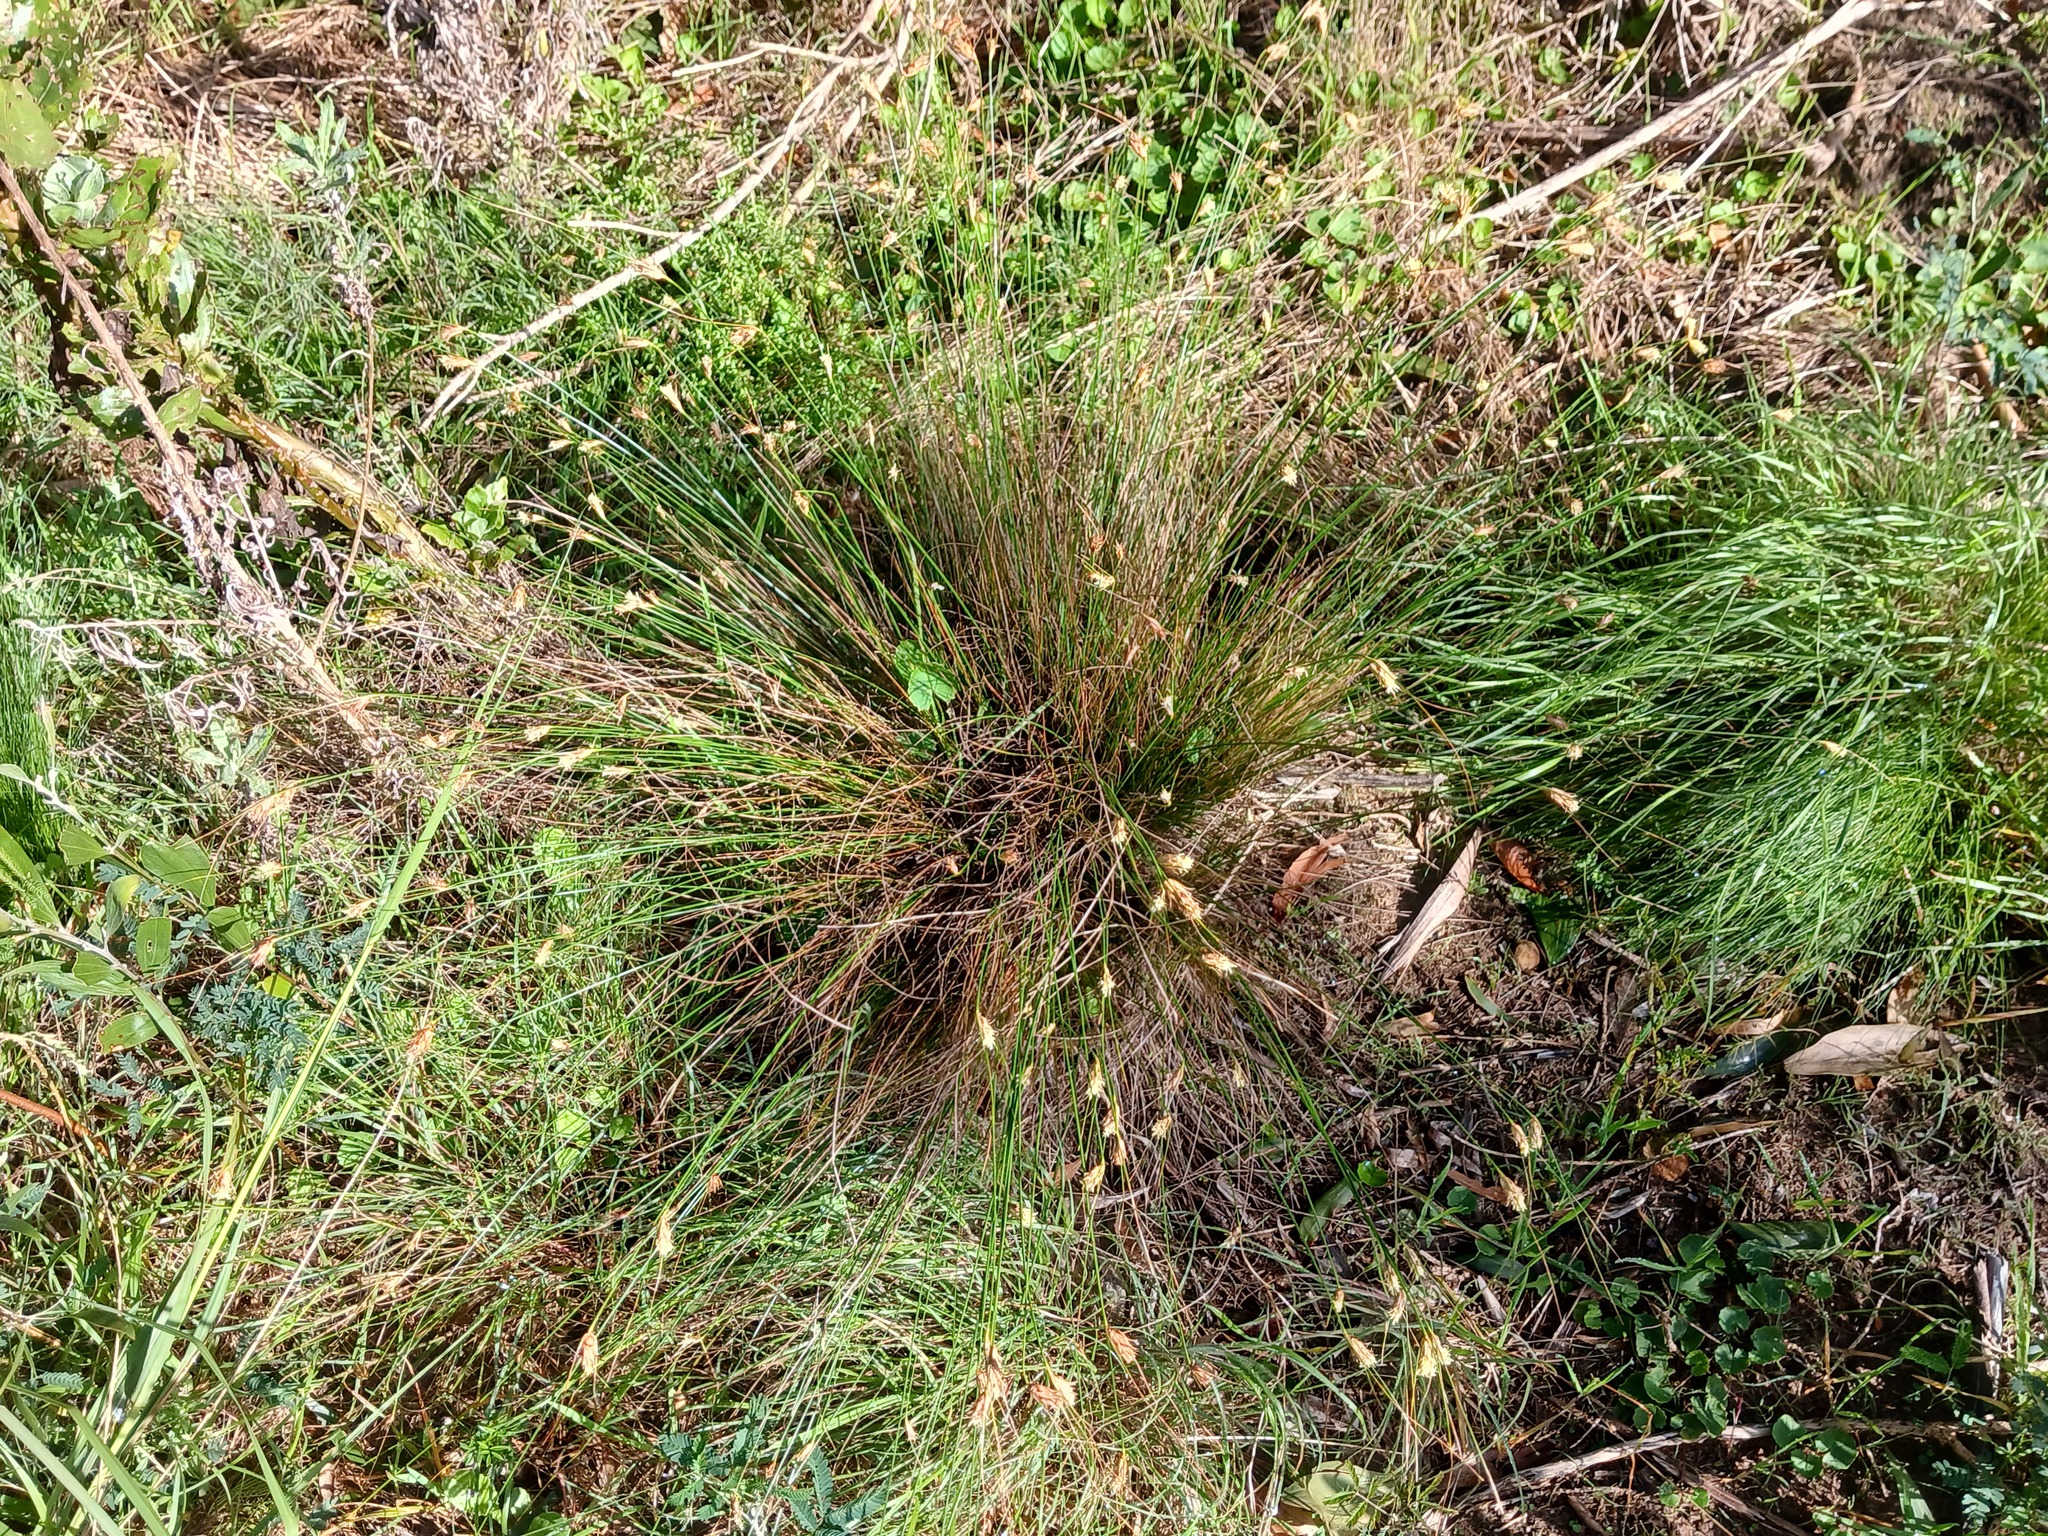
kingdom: Plantae
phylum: Tracheophyta
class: Liliopsida
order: Poales
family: Cyperaceae
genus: Ficinia
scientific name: Ficinia nigrescens
